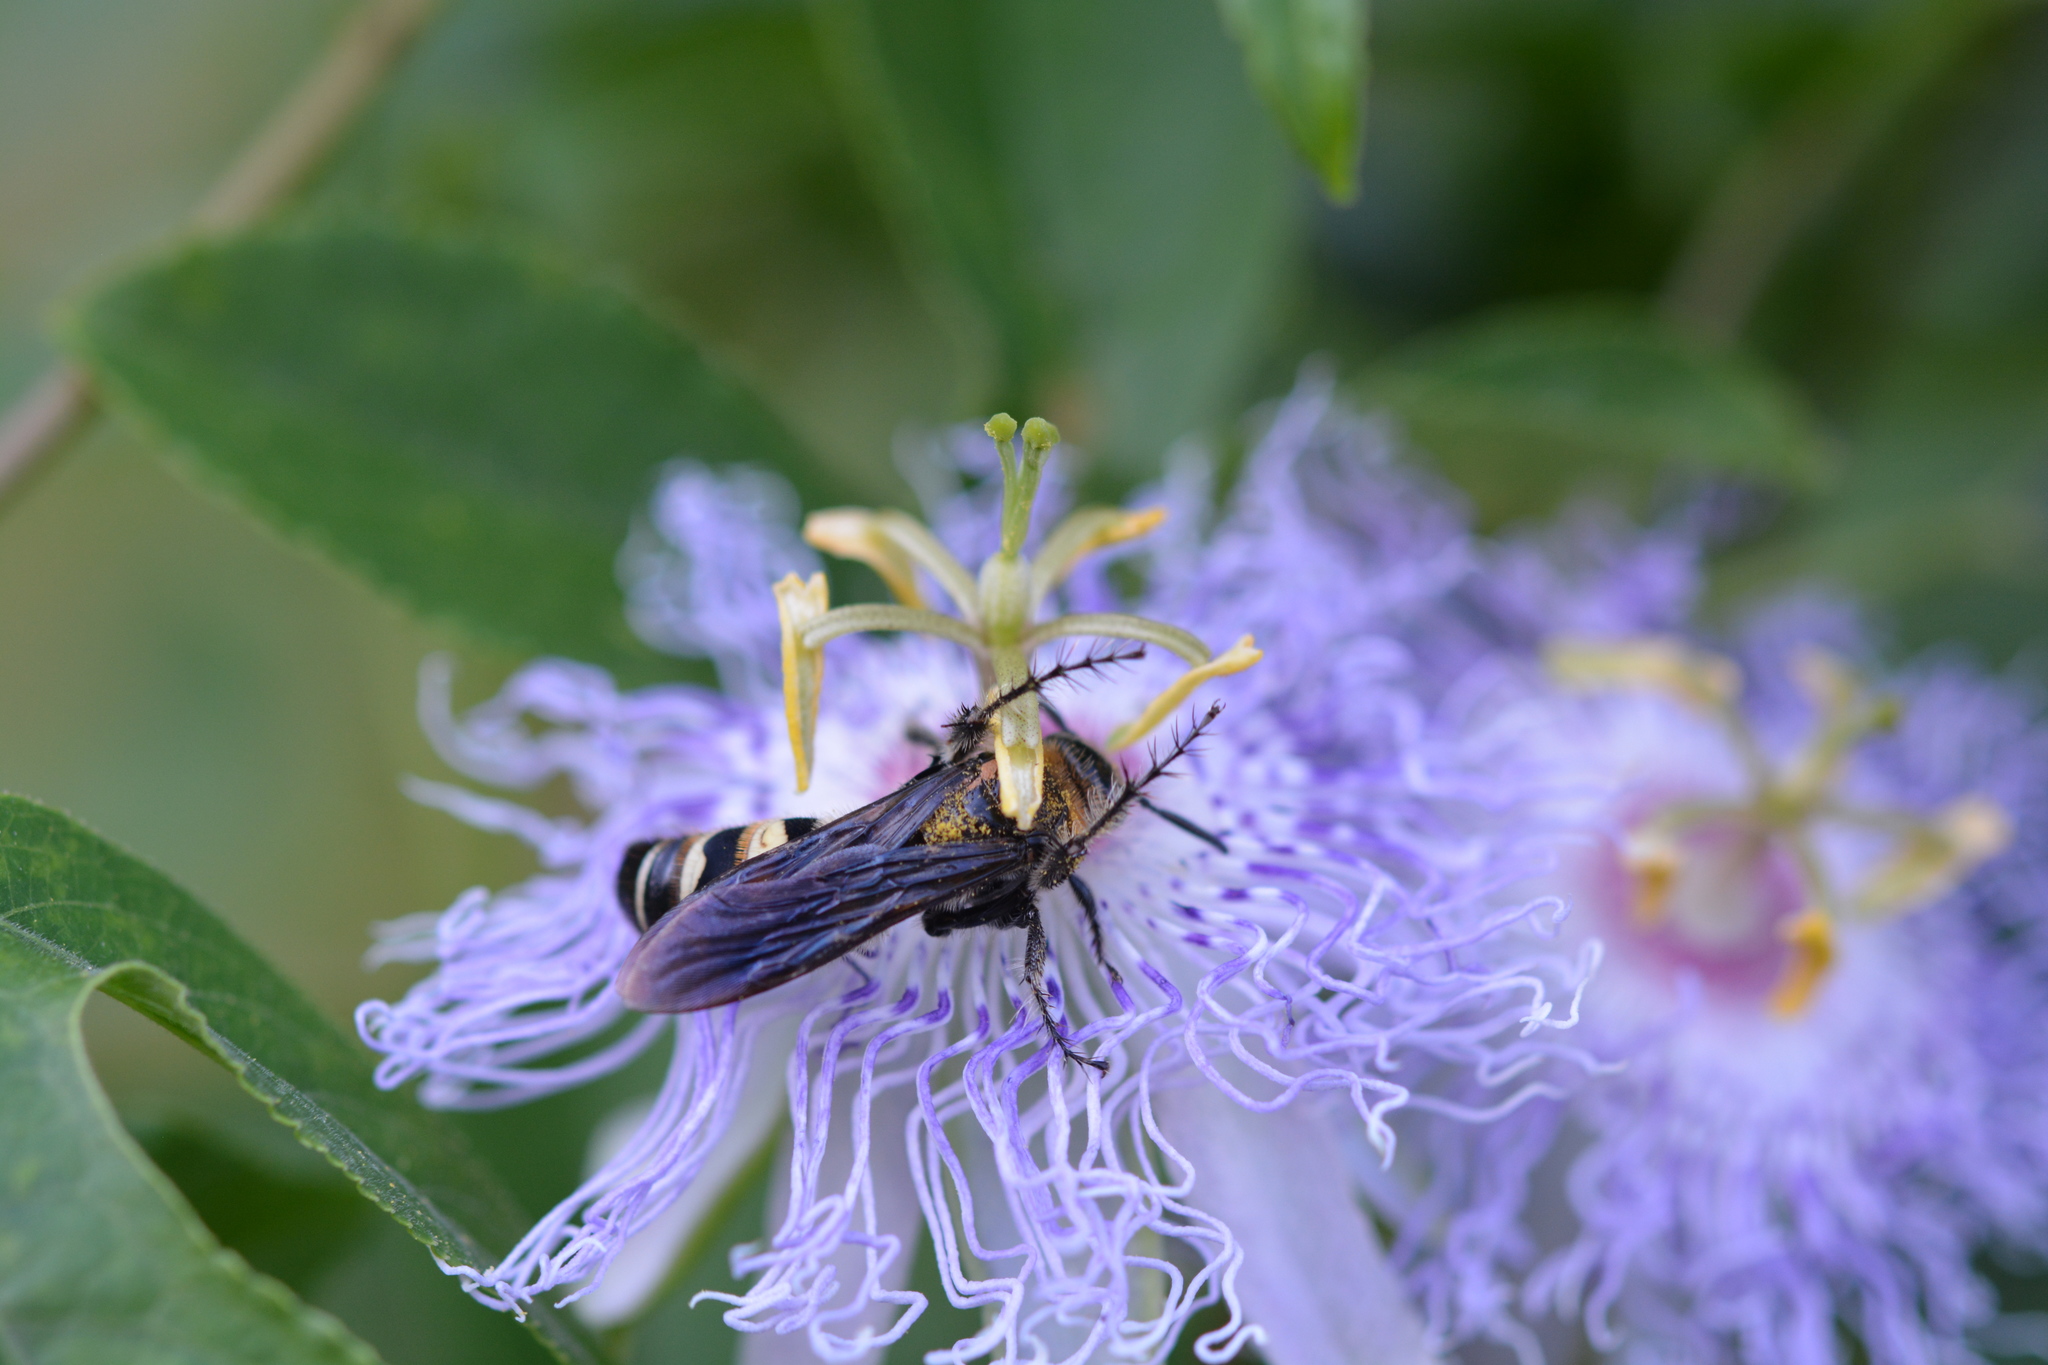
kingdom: Animalia
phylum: Arthropoda
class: Insecta
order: Hymenoptera
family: Scoliidae
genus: Dielis
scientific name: Dielis
